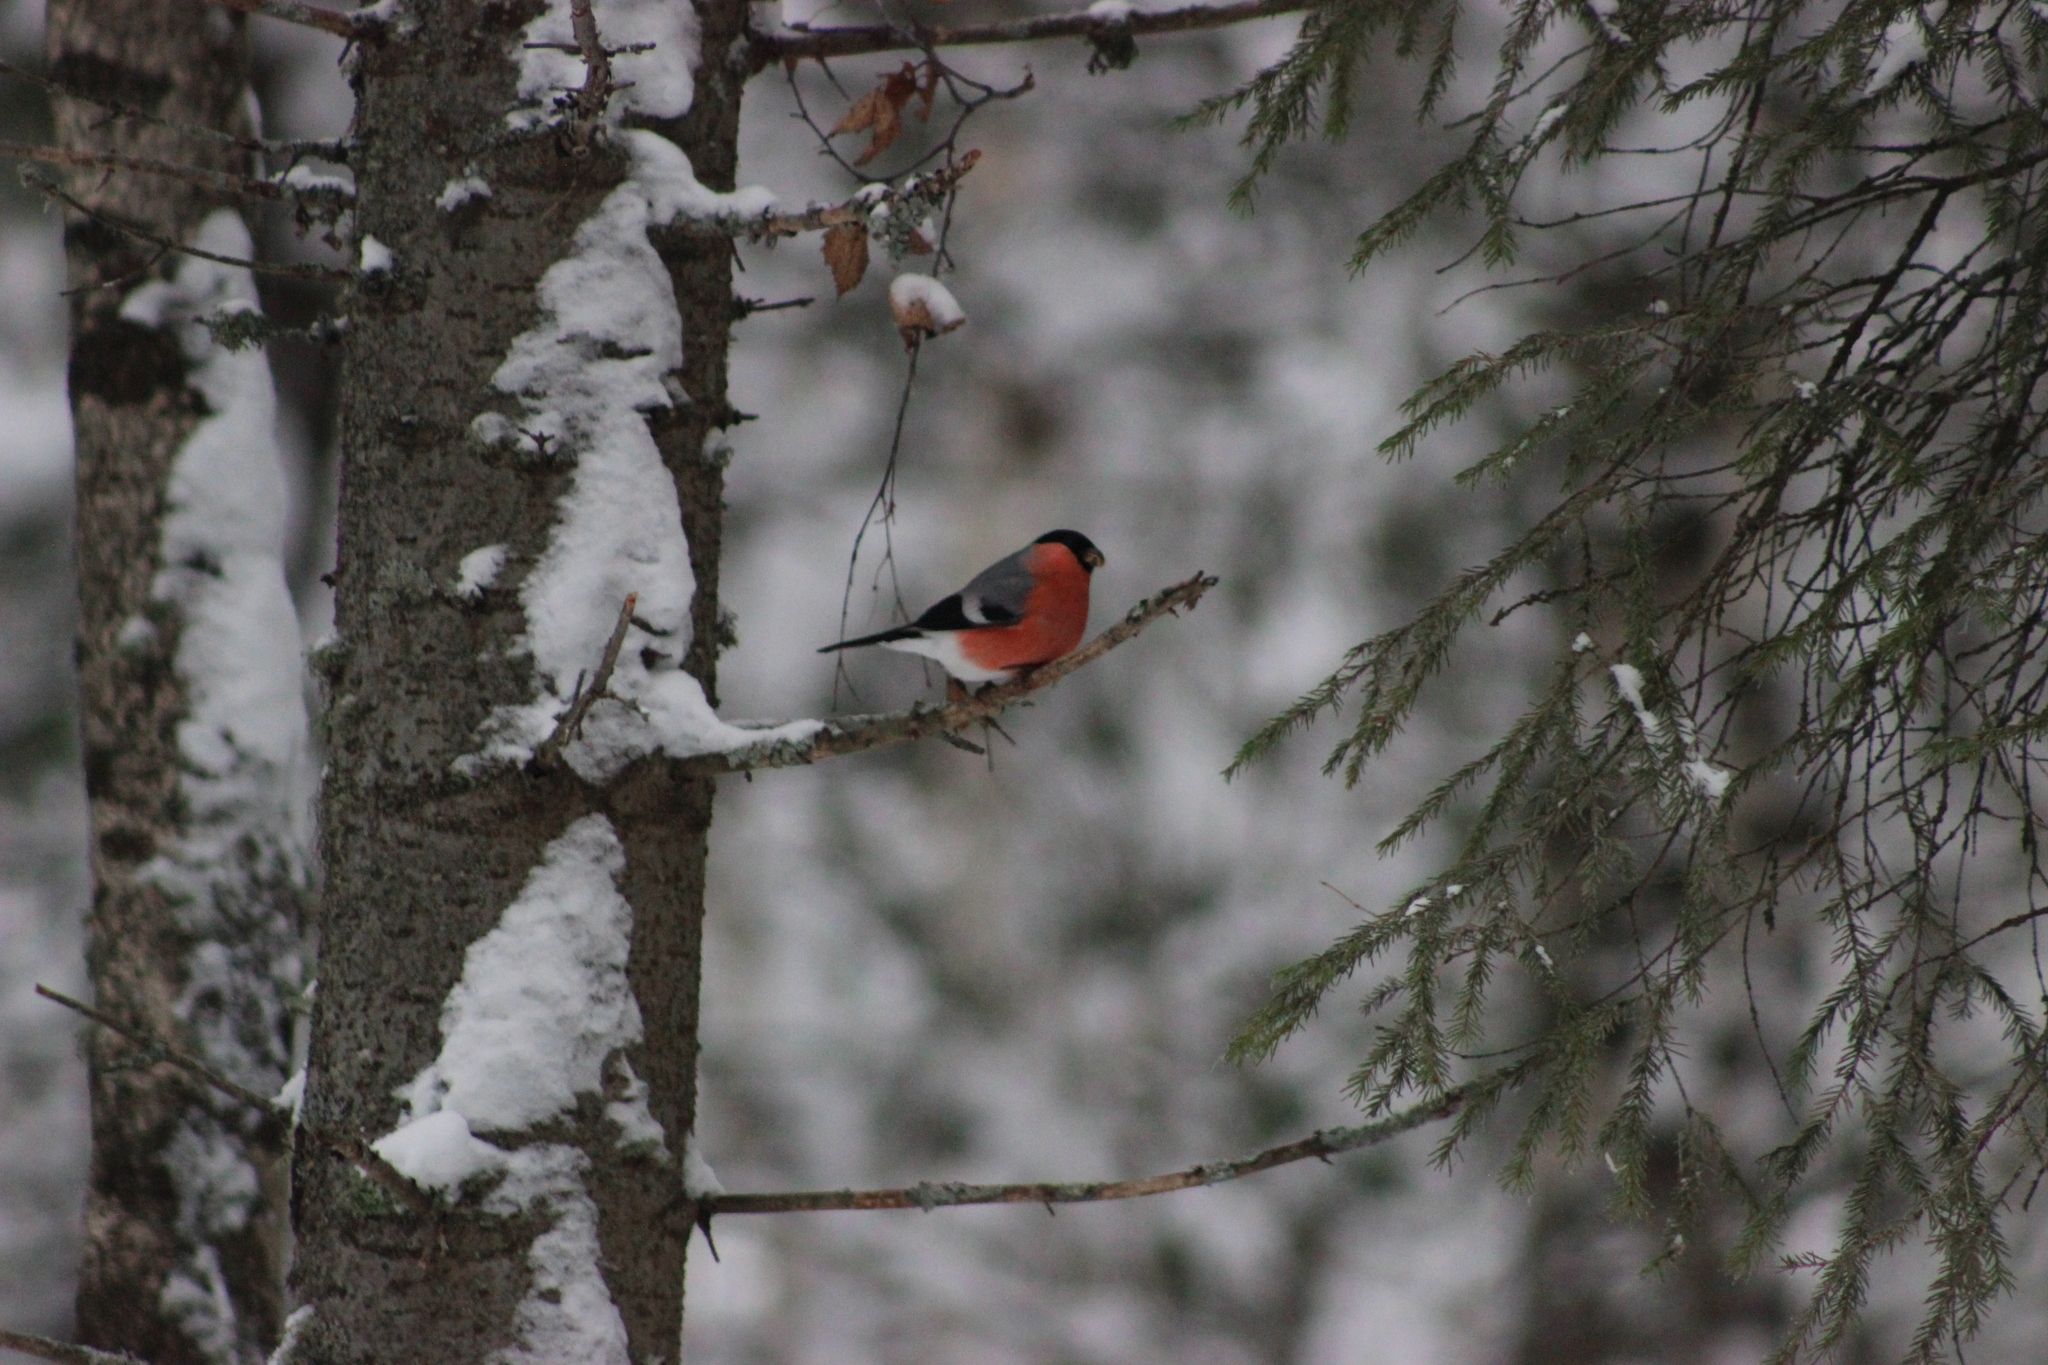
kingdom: Animalia
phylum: Chordata
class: Aves
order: Passeriformes
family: Fringillidae
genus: Pyrrhula
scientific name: Pyrrhula pyrrhula
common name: Eurasian bullfinch
